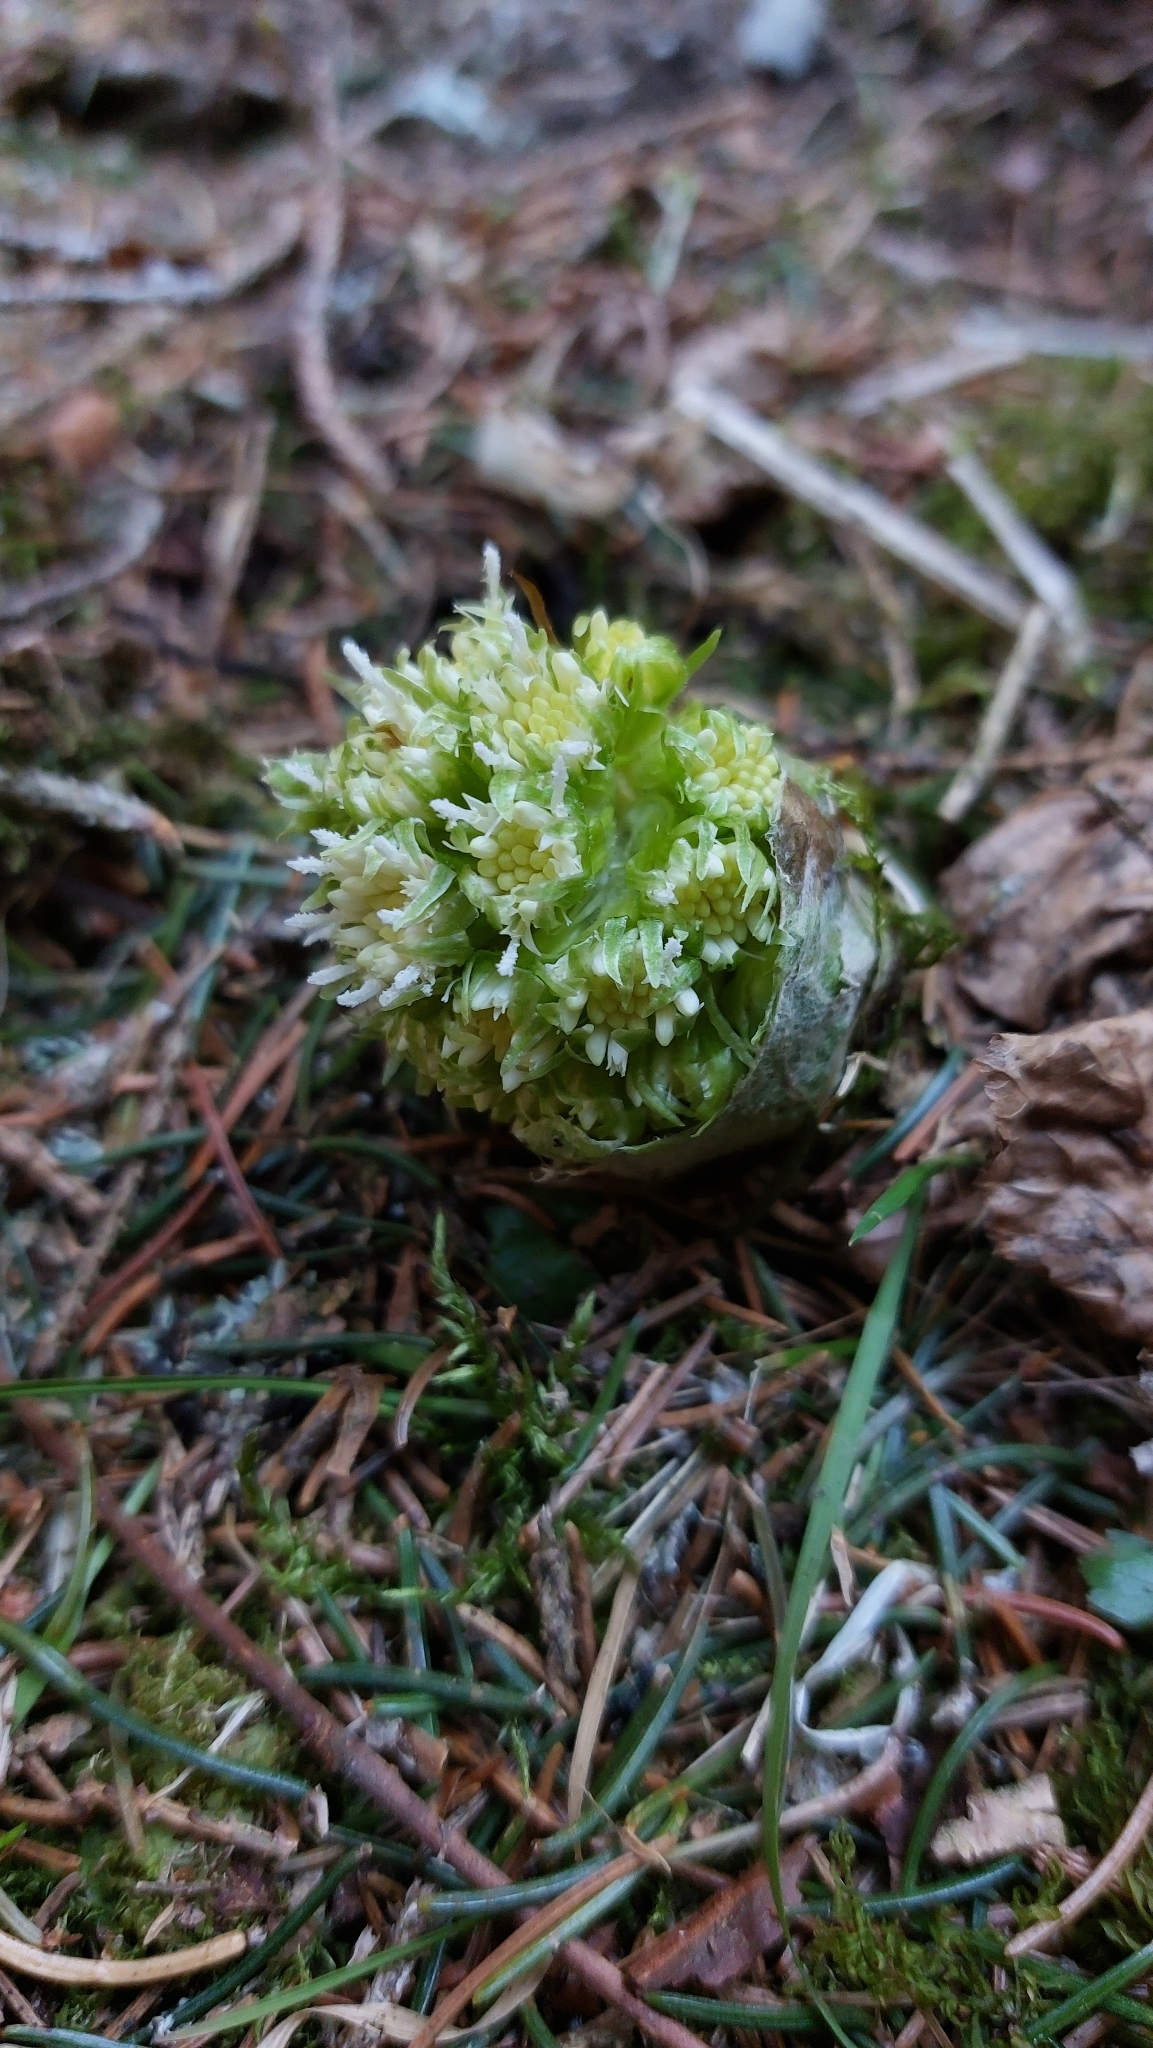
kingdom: Plantae
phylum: Tracheophyta
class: Magnoliopsida
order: Asterales
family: Asteraceae
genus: Petasites
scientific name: Petasites albus
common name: White butterbur
